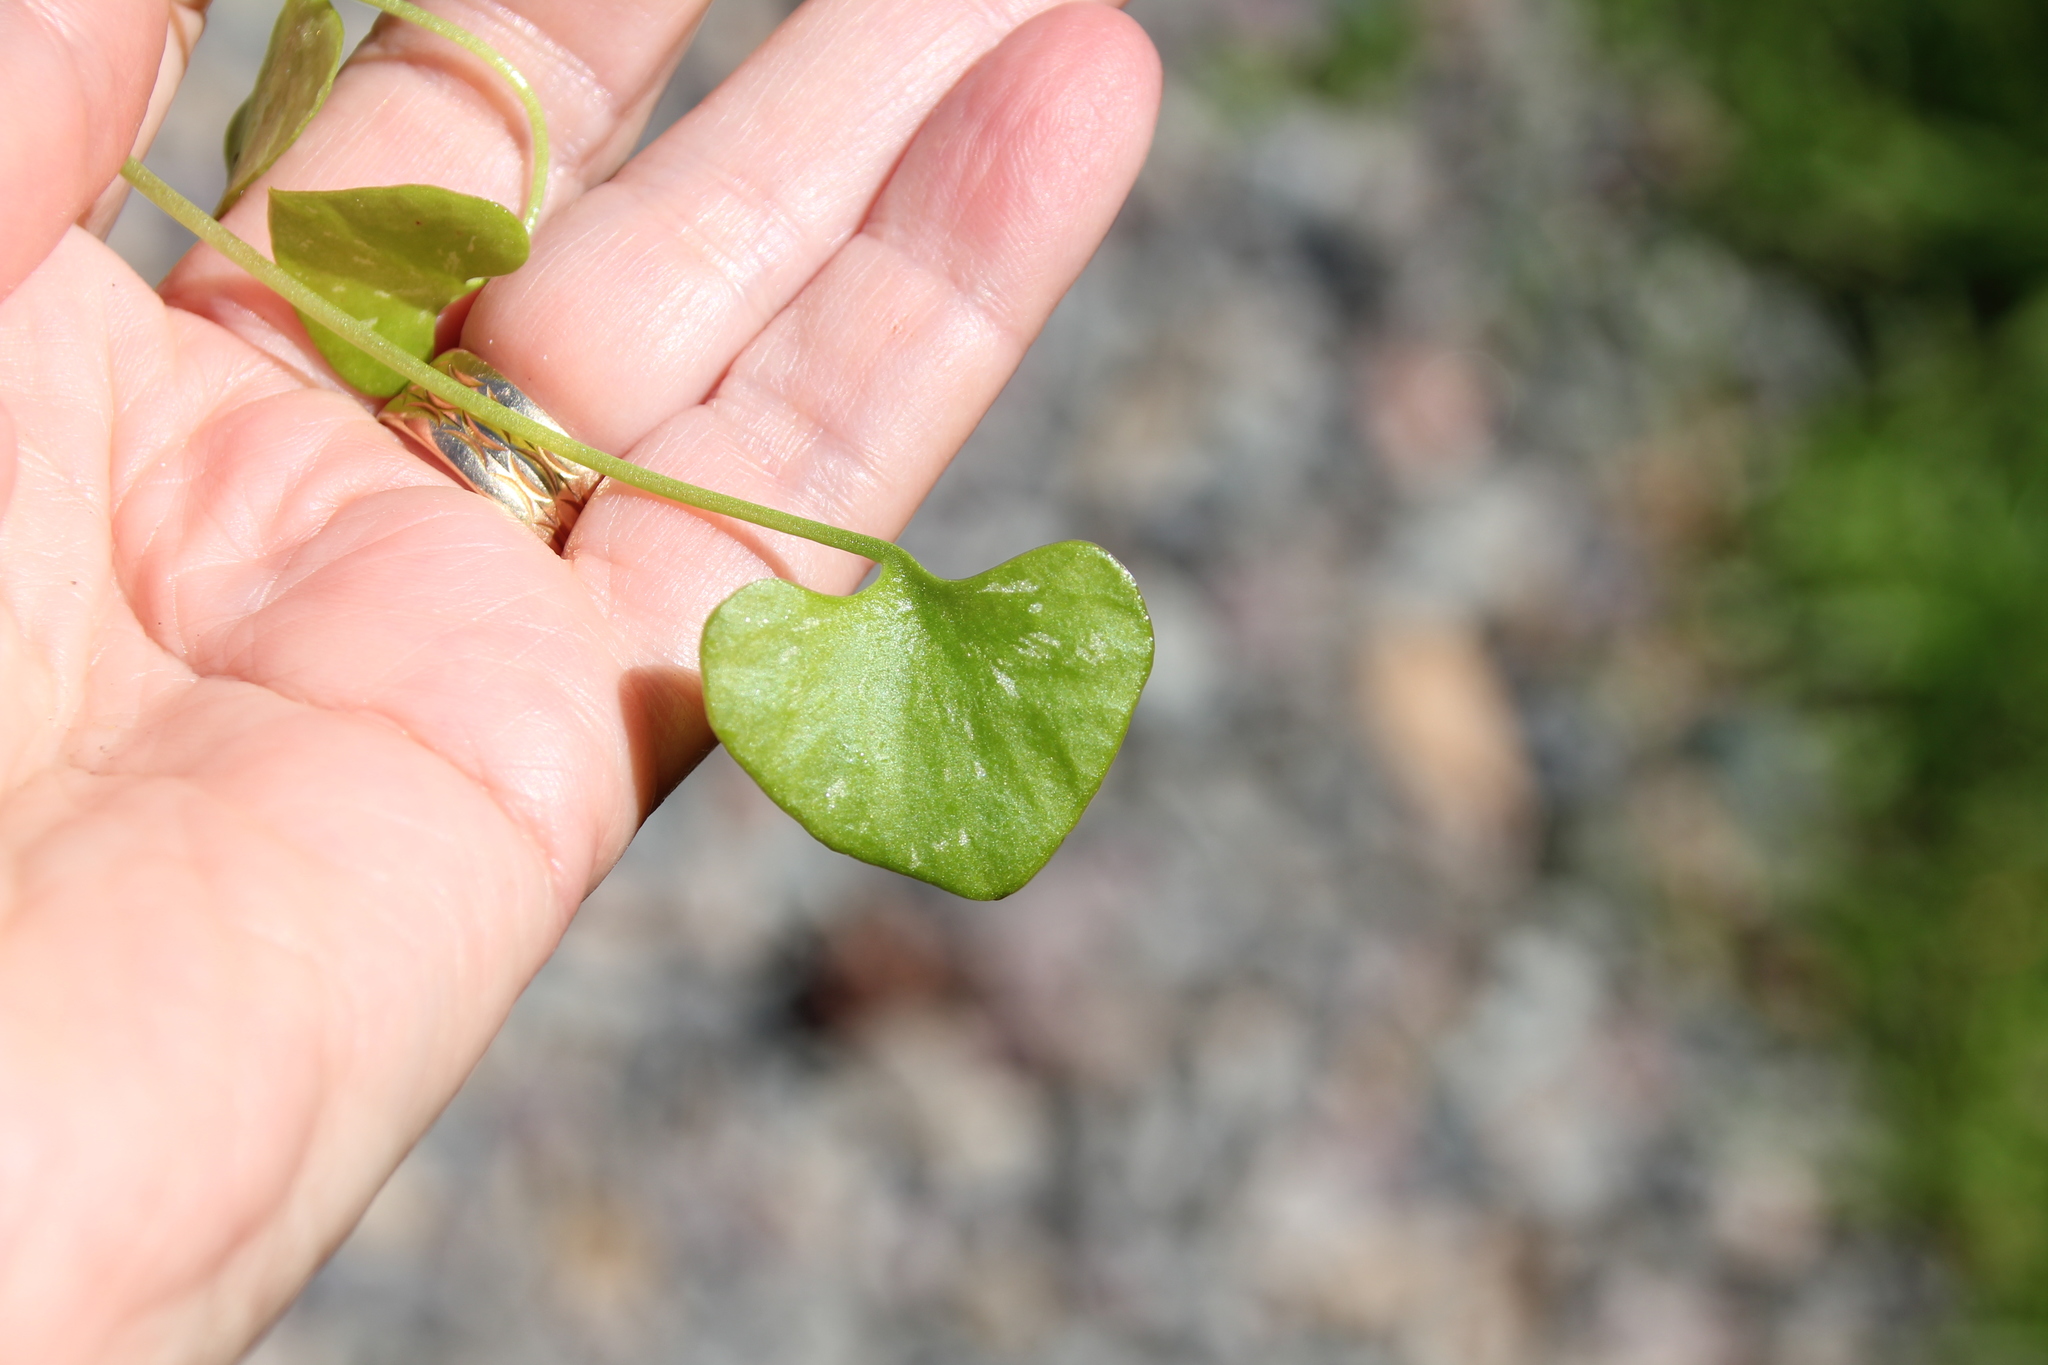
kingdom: Plantae
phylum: Tracheophyta
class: Magnoliopsida
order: Caryophyllales
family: Montiaceae
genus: Claytonia
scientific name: Claytonia perfoliata
